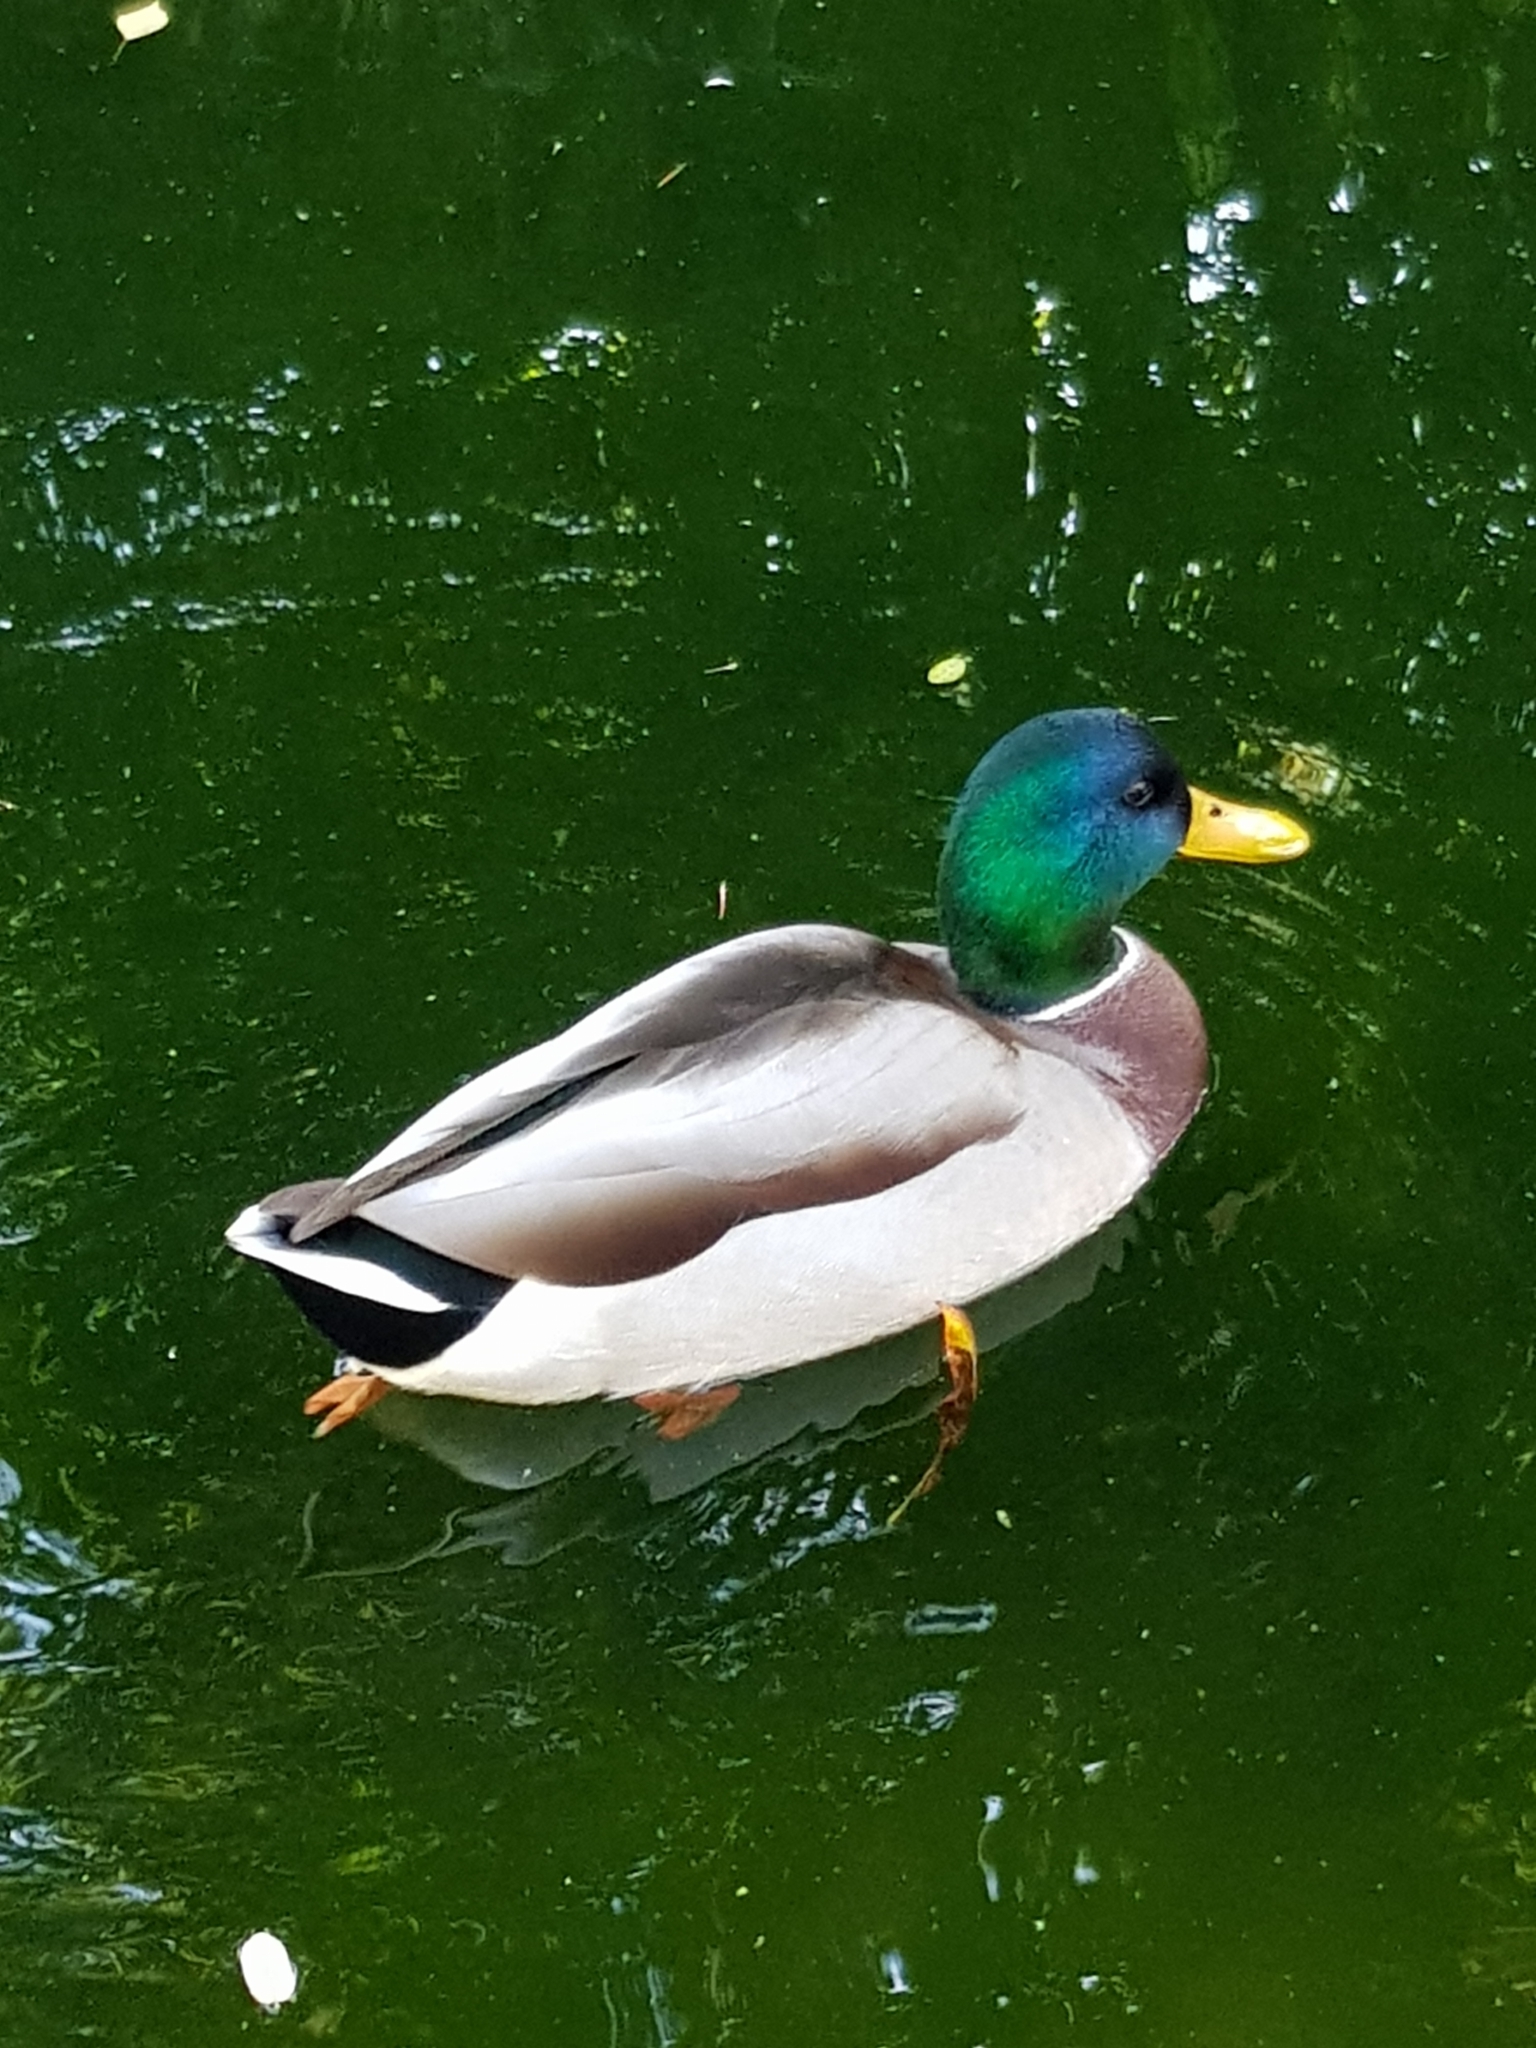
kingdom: Animalia
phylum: Chordata
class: Aves
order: Anseriformes
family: Anatidae
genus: Anas
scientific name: Anas platyrhynchos
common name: Mallard
